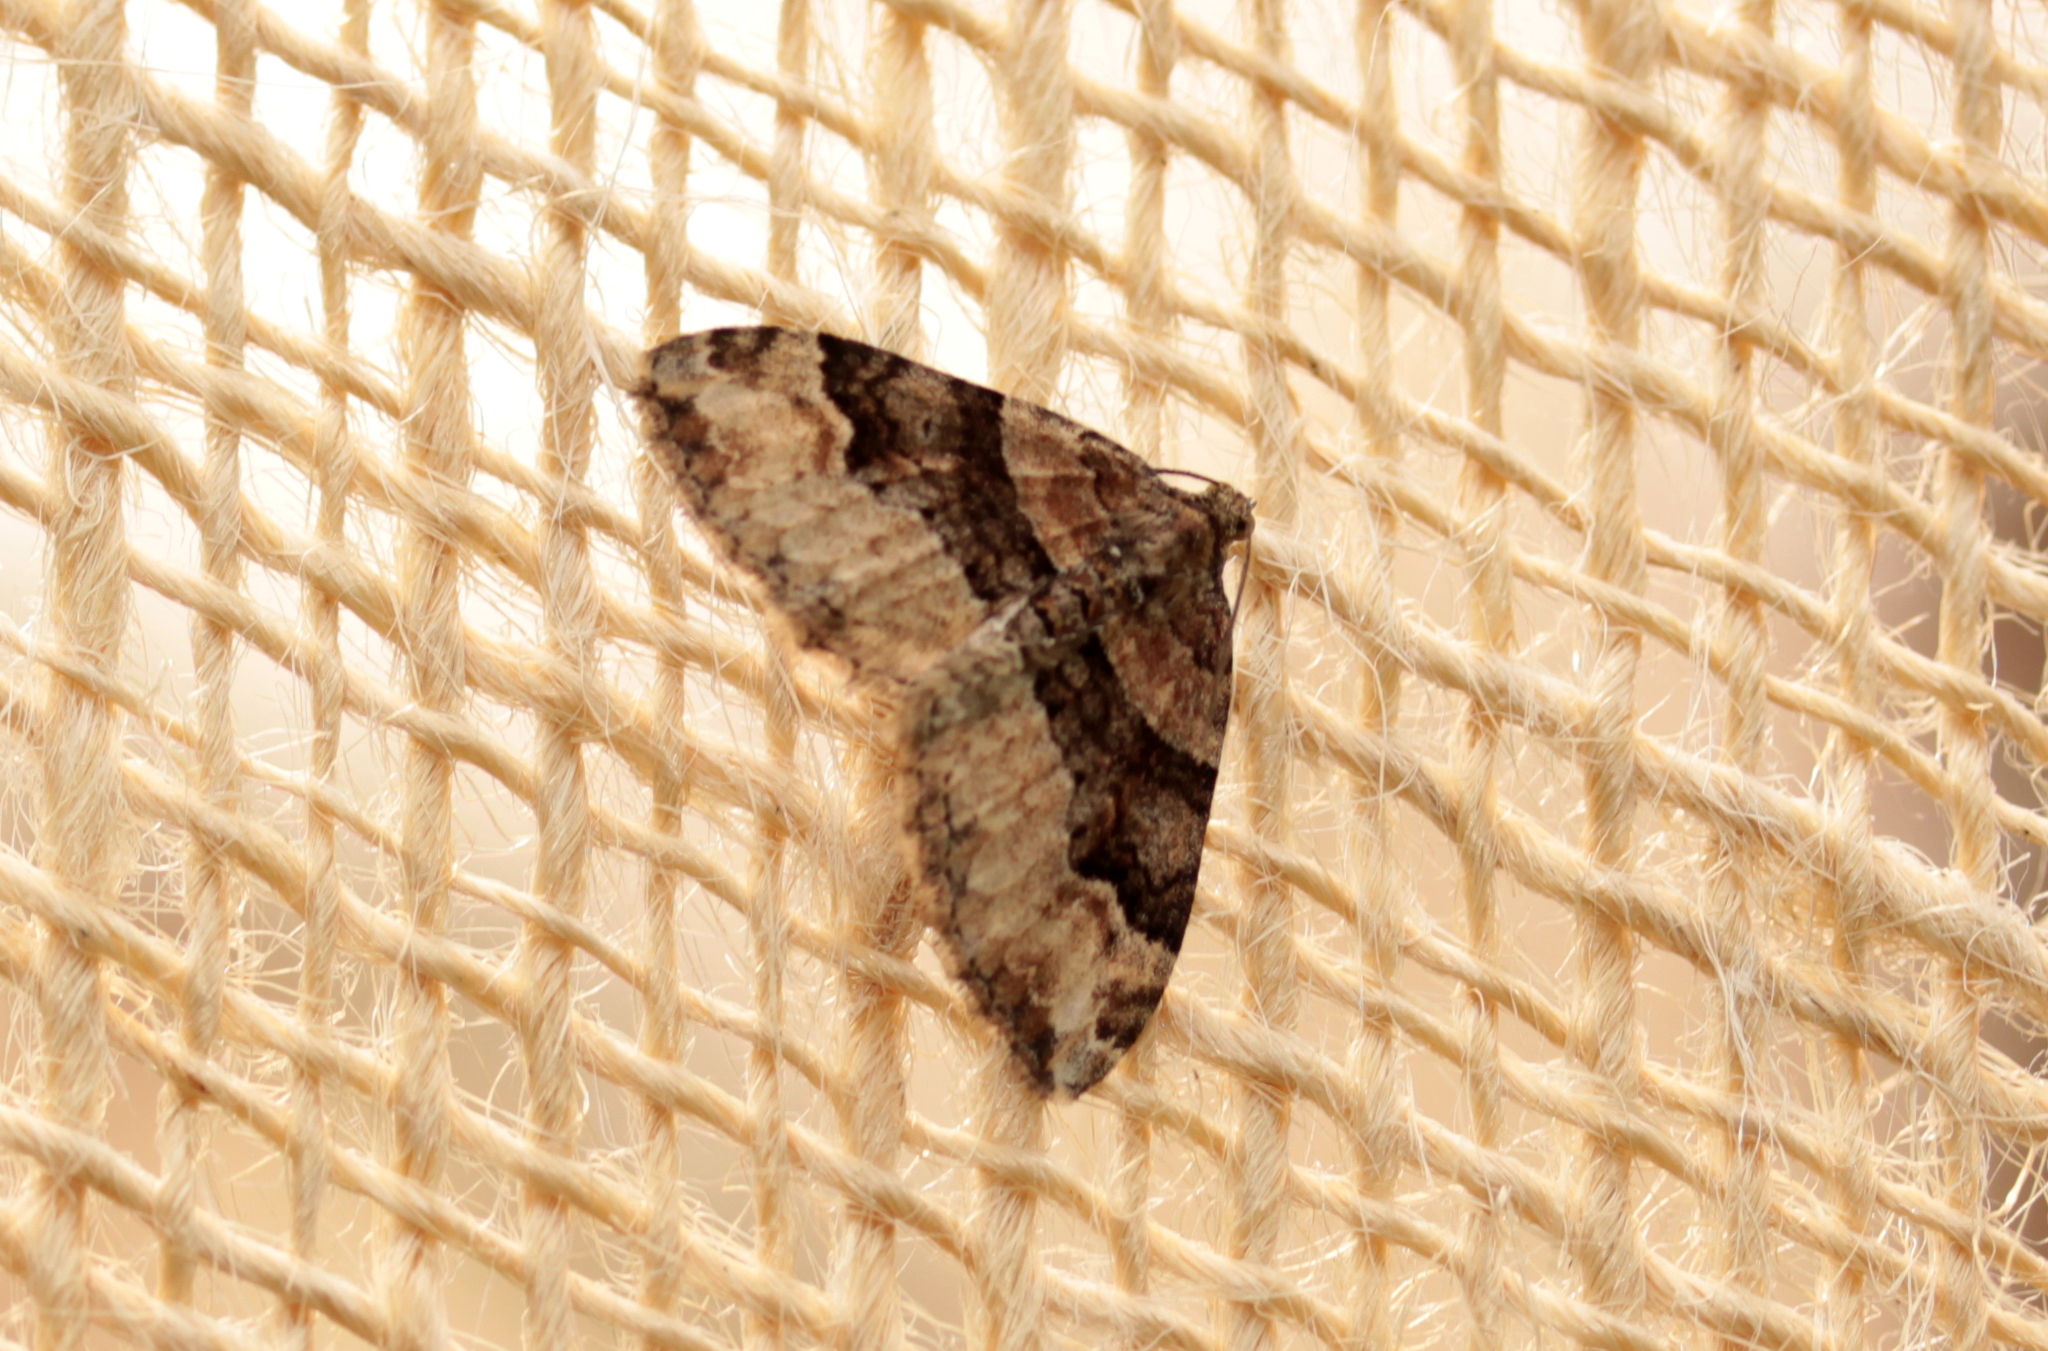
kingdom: Animalia
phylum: Arthropoda
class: Insecta
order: Lepidoptera
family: Geometridae
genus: Xanthorhoe
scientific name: Xanthorhoe lacustrata
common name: Toothed brown carpet
